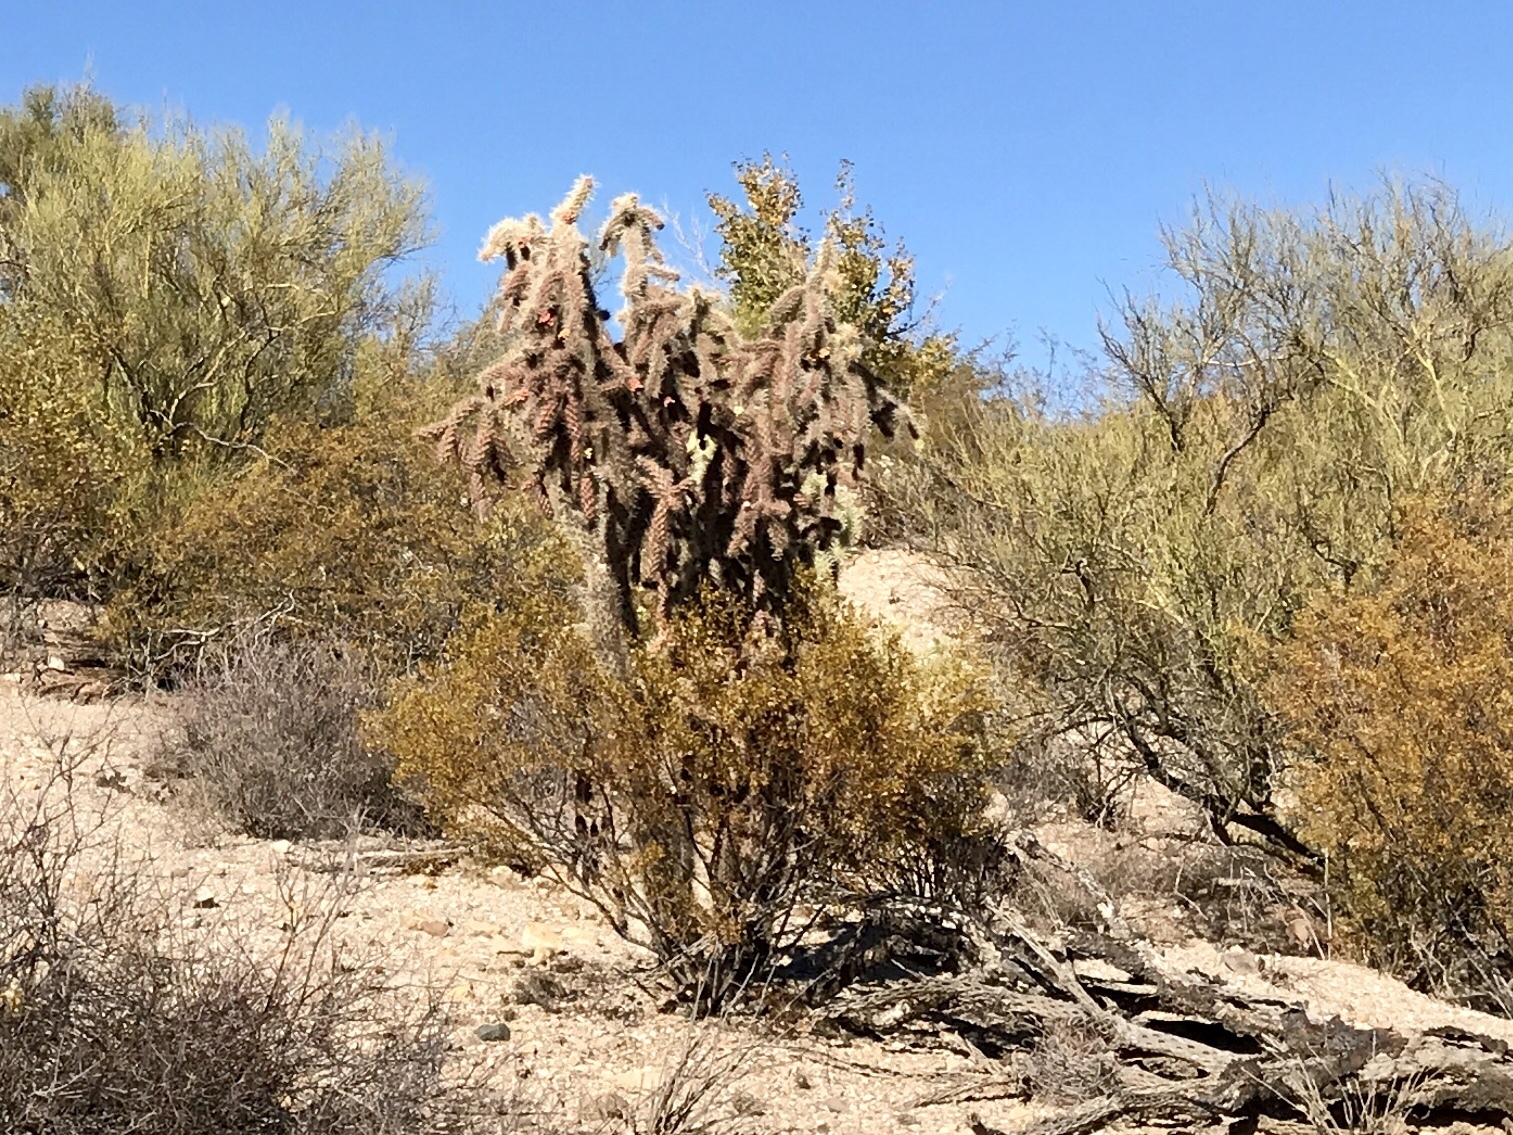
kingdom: Plantae
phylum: Tracheophyta
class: Magnoliopsida
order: Caryophyllales
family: Cactaceae
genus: Cylindropuntia
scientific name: Cylindropuntia fulgida
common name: Jumping cholla
